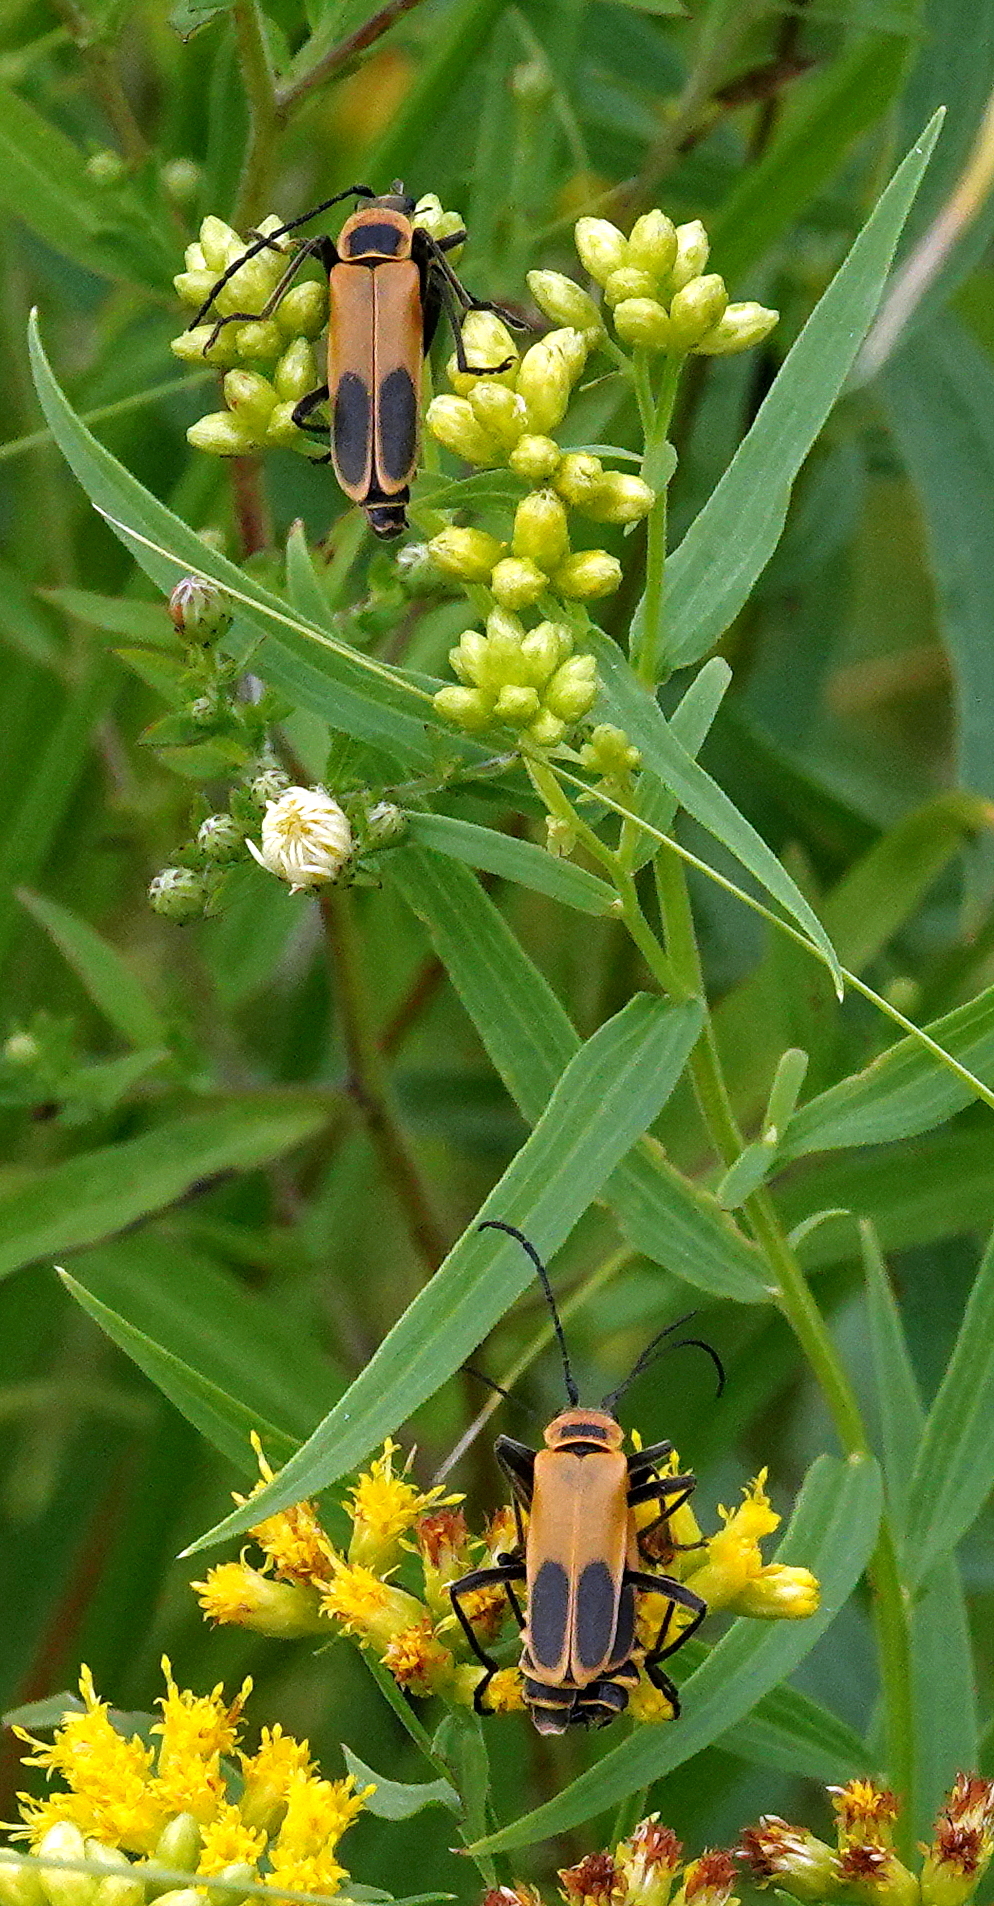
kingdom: Animalia
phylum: Arthropoda
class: Insecta
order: Coleoptera
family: Cantharidae
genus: Chauliognathus
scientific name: Chauliognathus pensylvanicus
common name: Goldenrod soldier beetle
